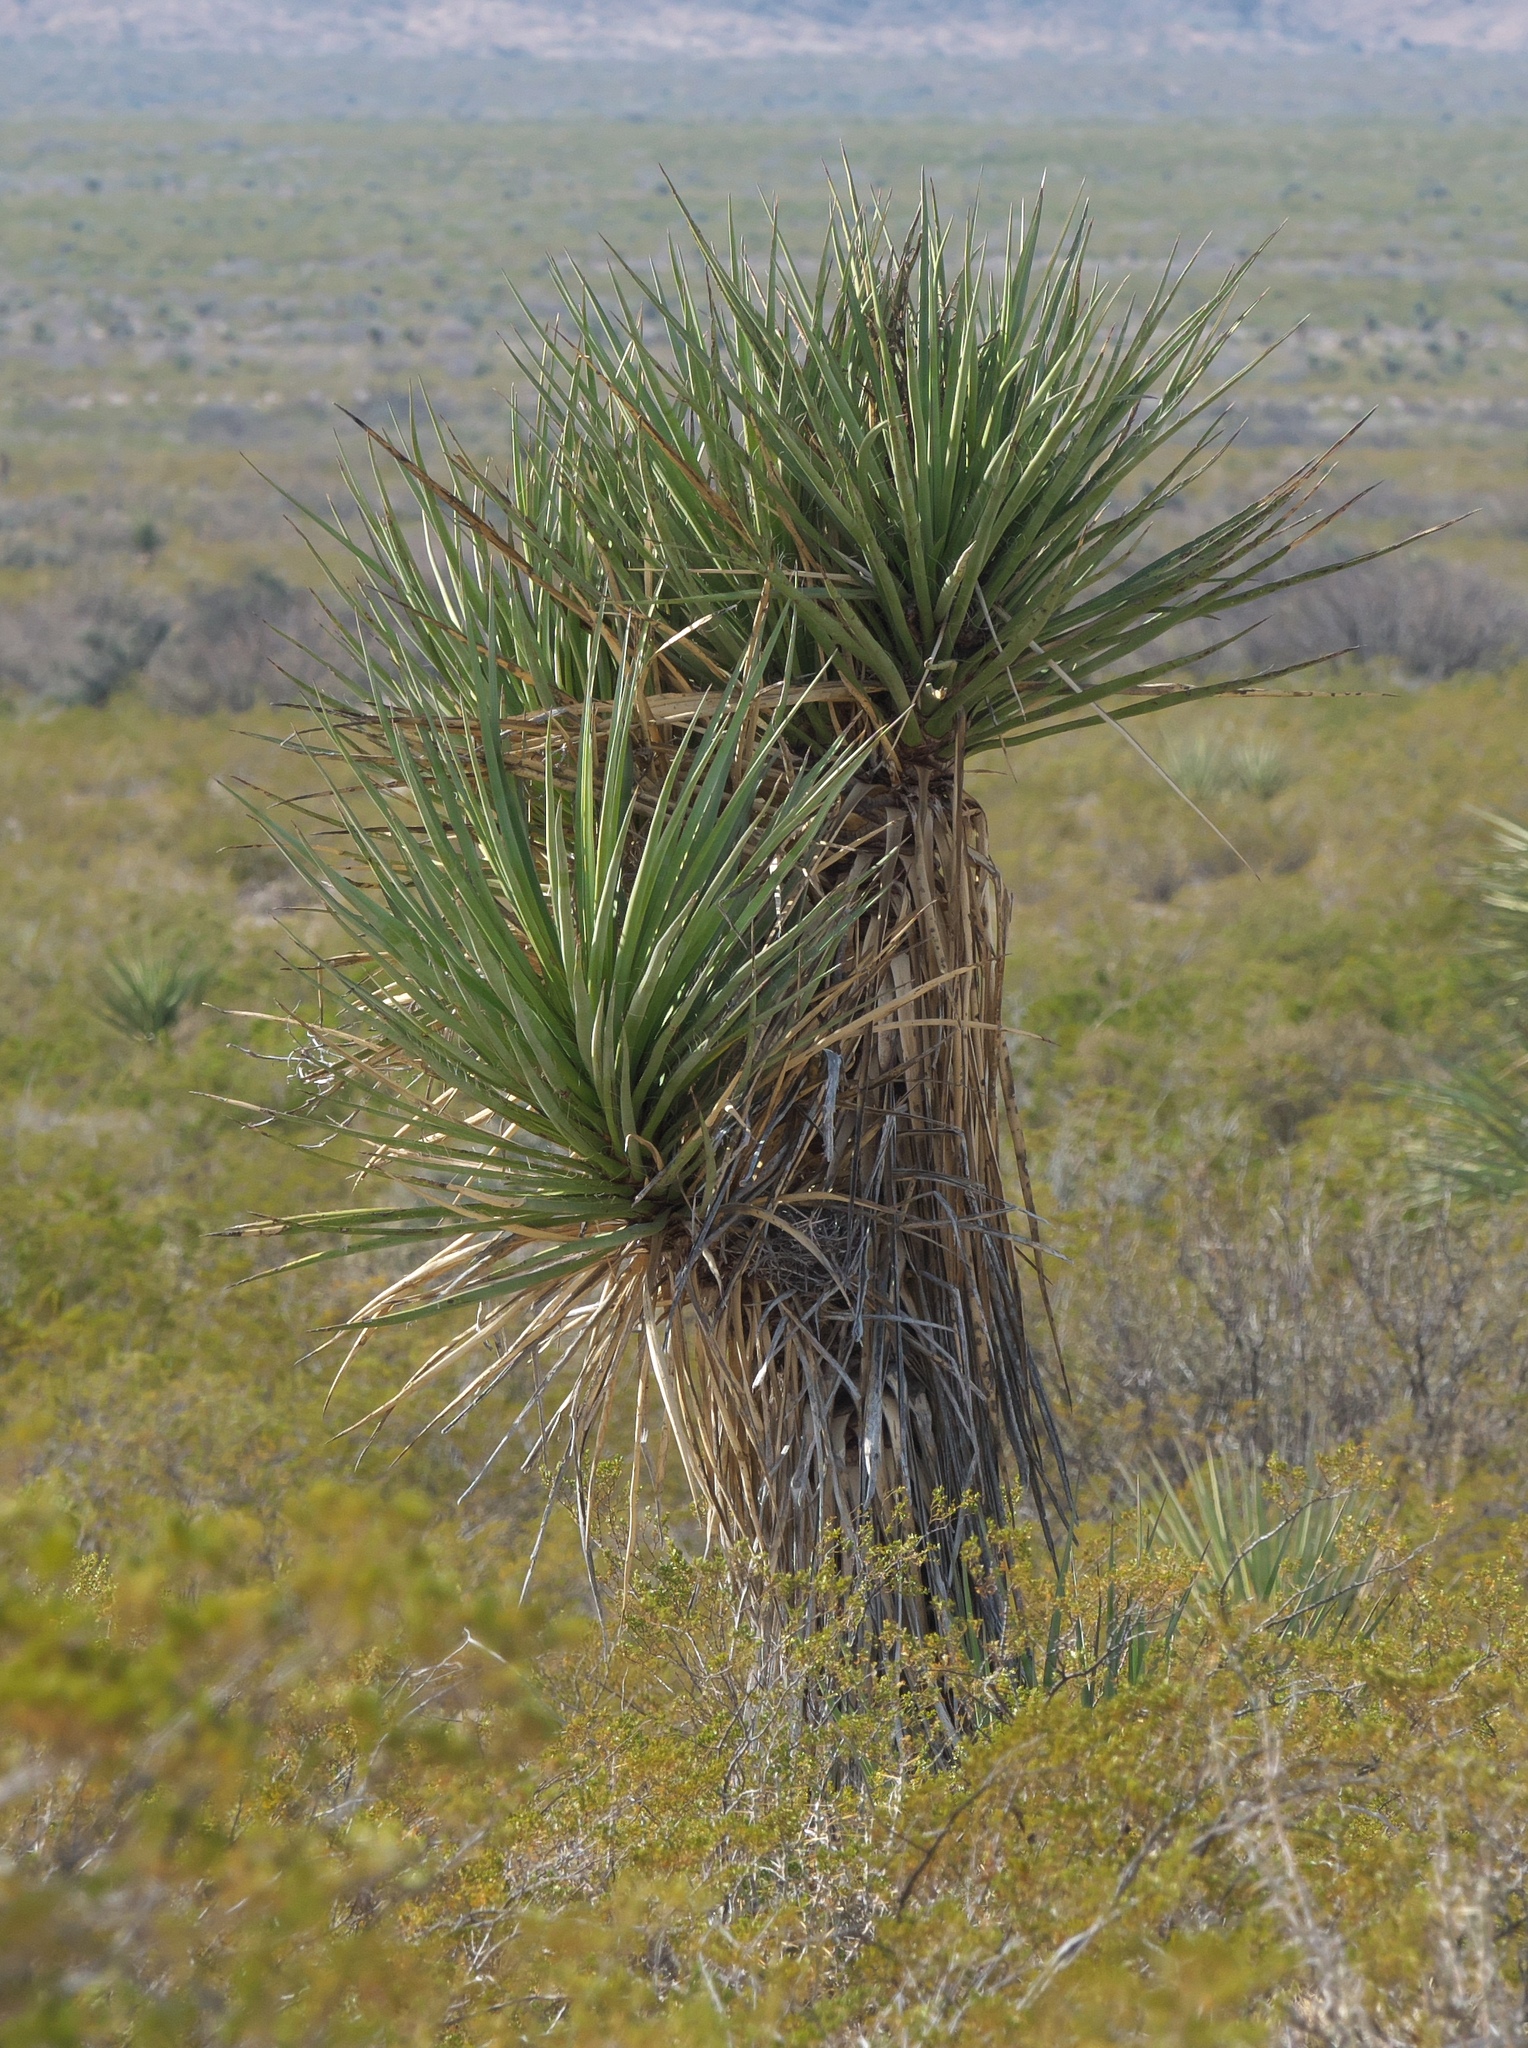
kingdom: Plantae
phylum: Tracheophyta
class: Liliopsida
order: Asparagales
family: Asparagaceae
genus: Yucca
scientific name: Yucca treculiana
